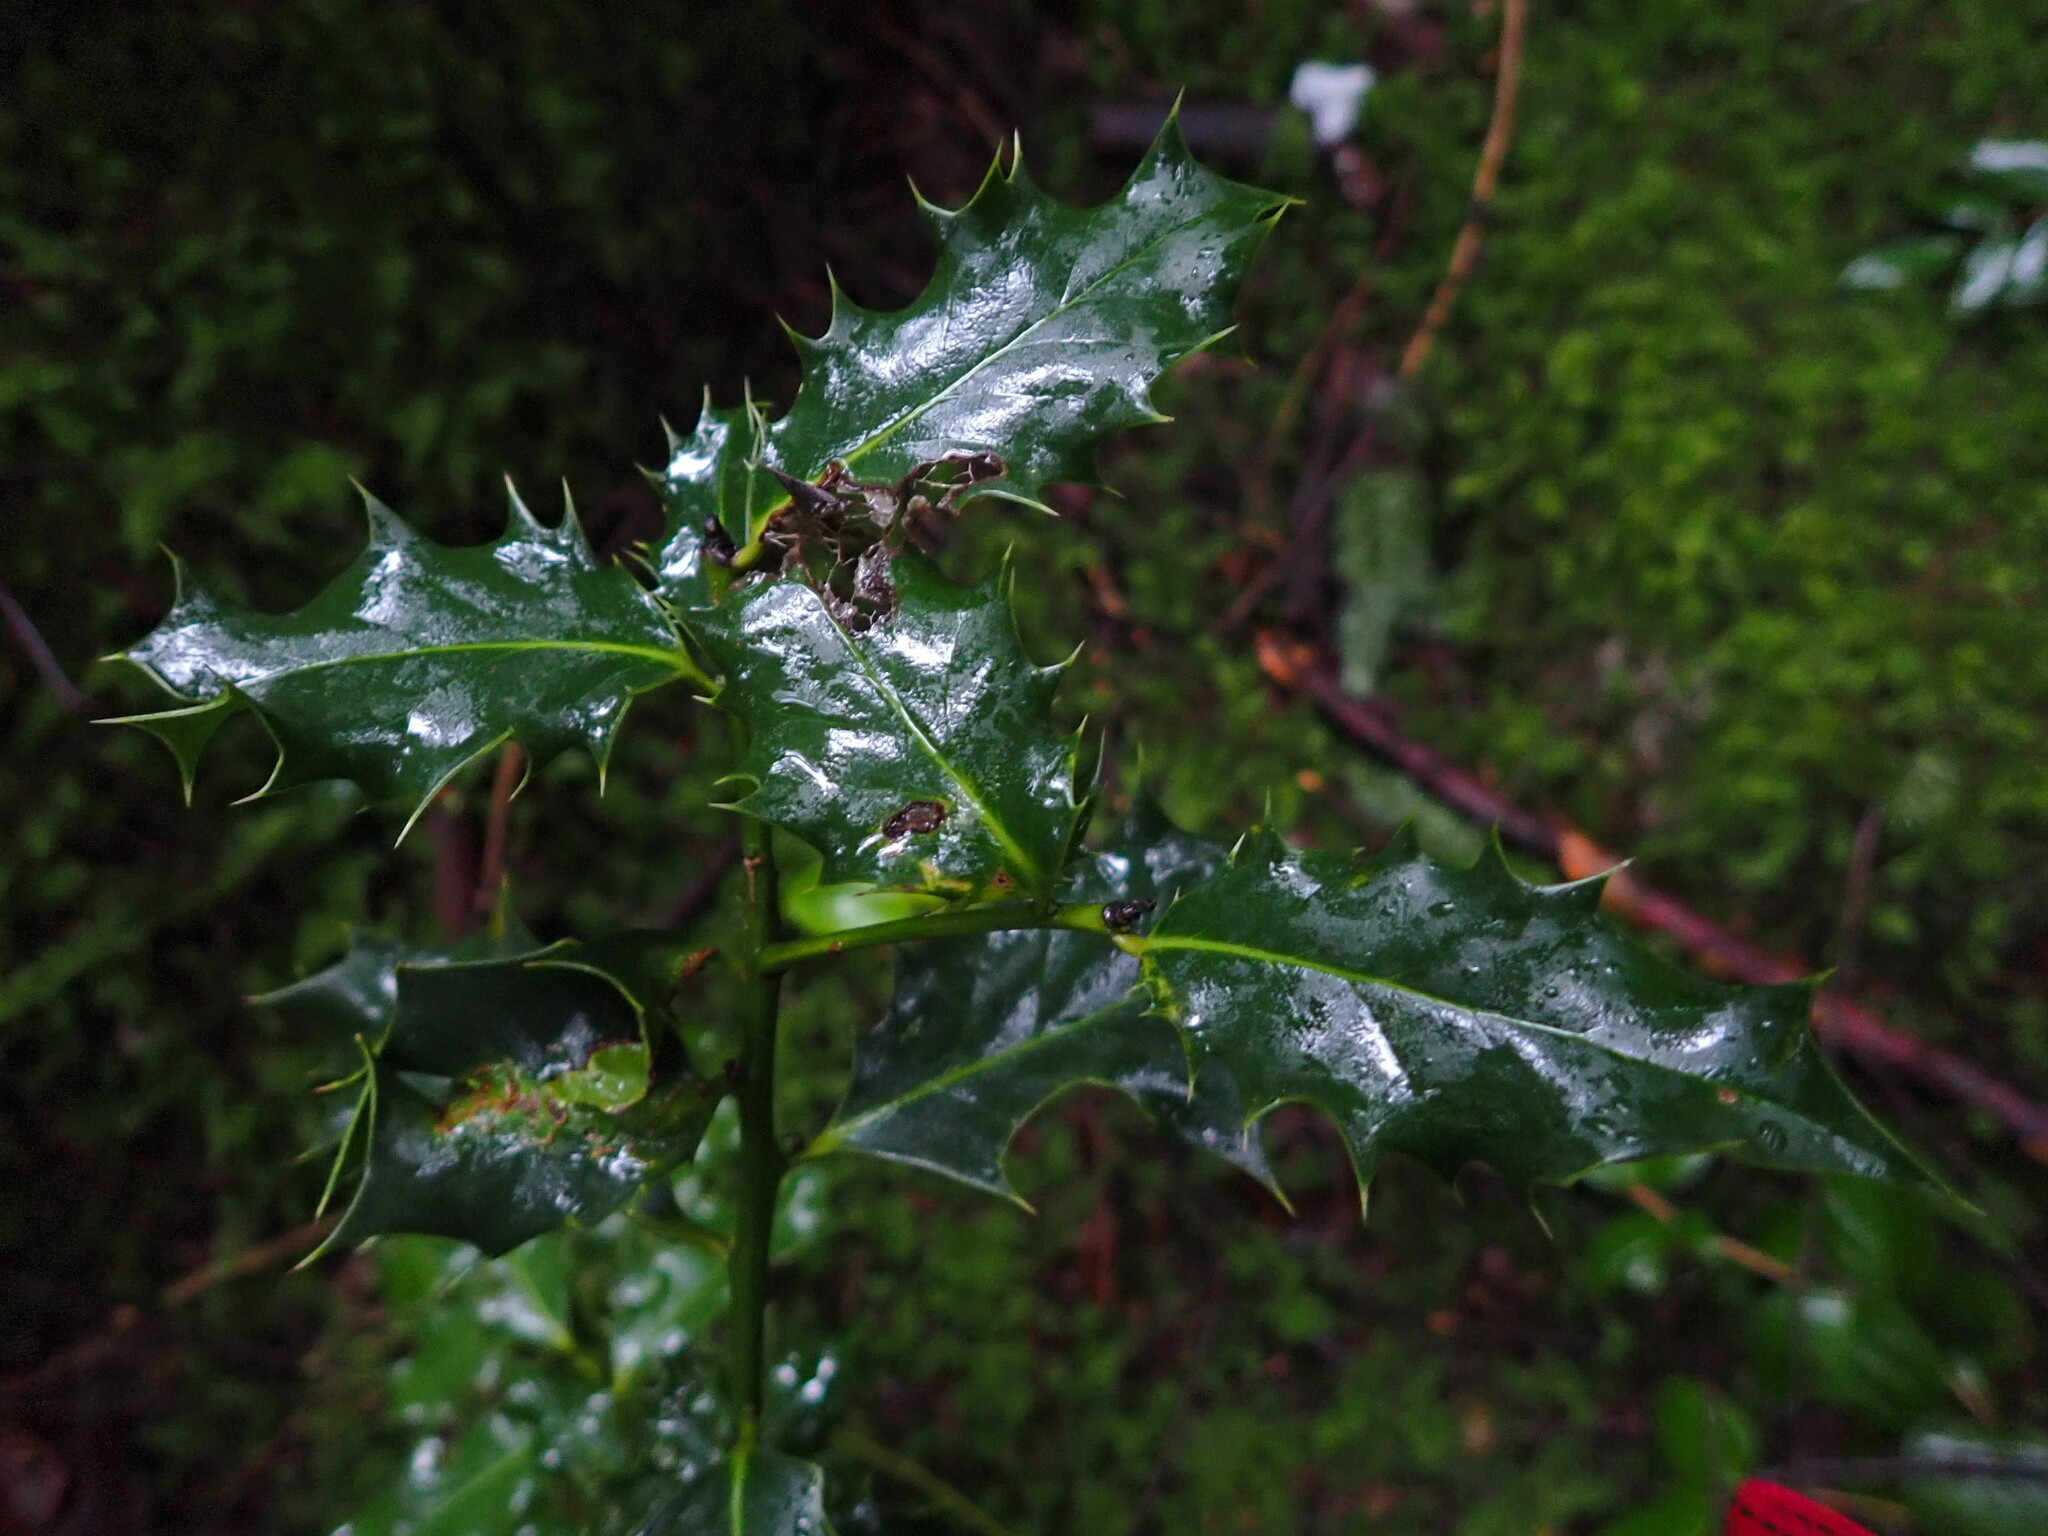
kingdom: Plantae
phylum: Tracheophyta
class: Magnoliopsida
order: Aquifoliales
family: Aquifoliaceae
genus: Ilex
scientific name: Ilex aquifolium
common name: English holly
